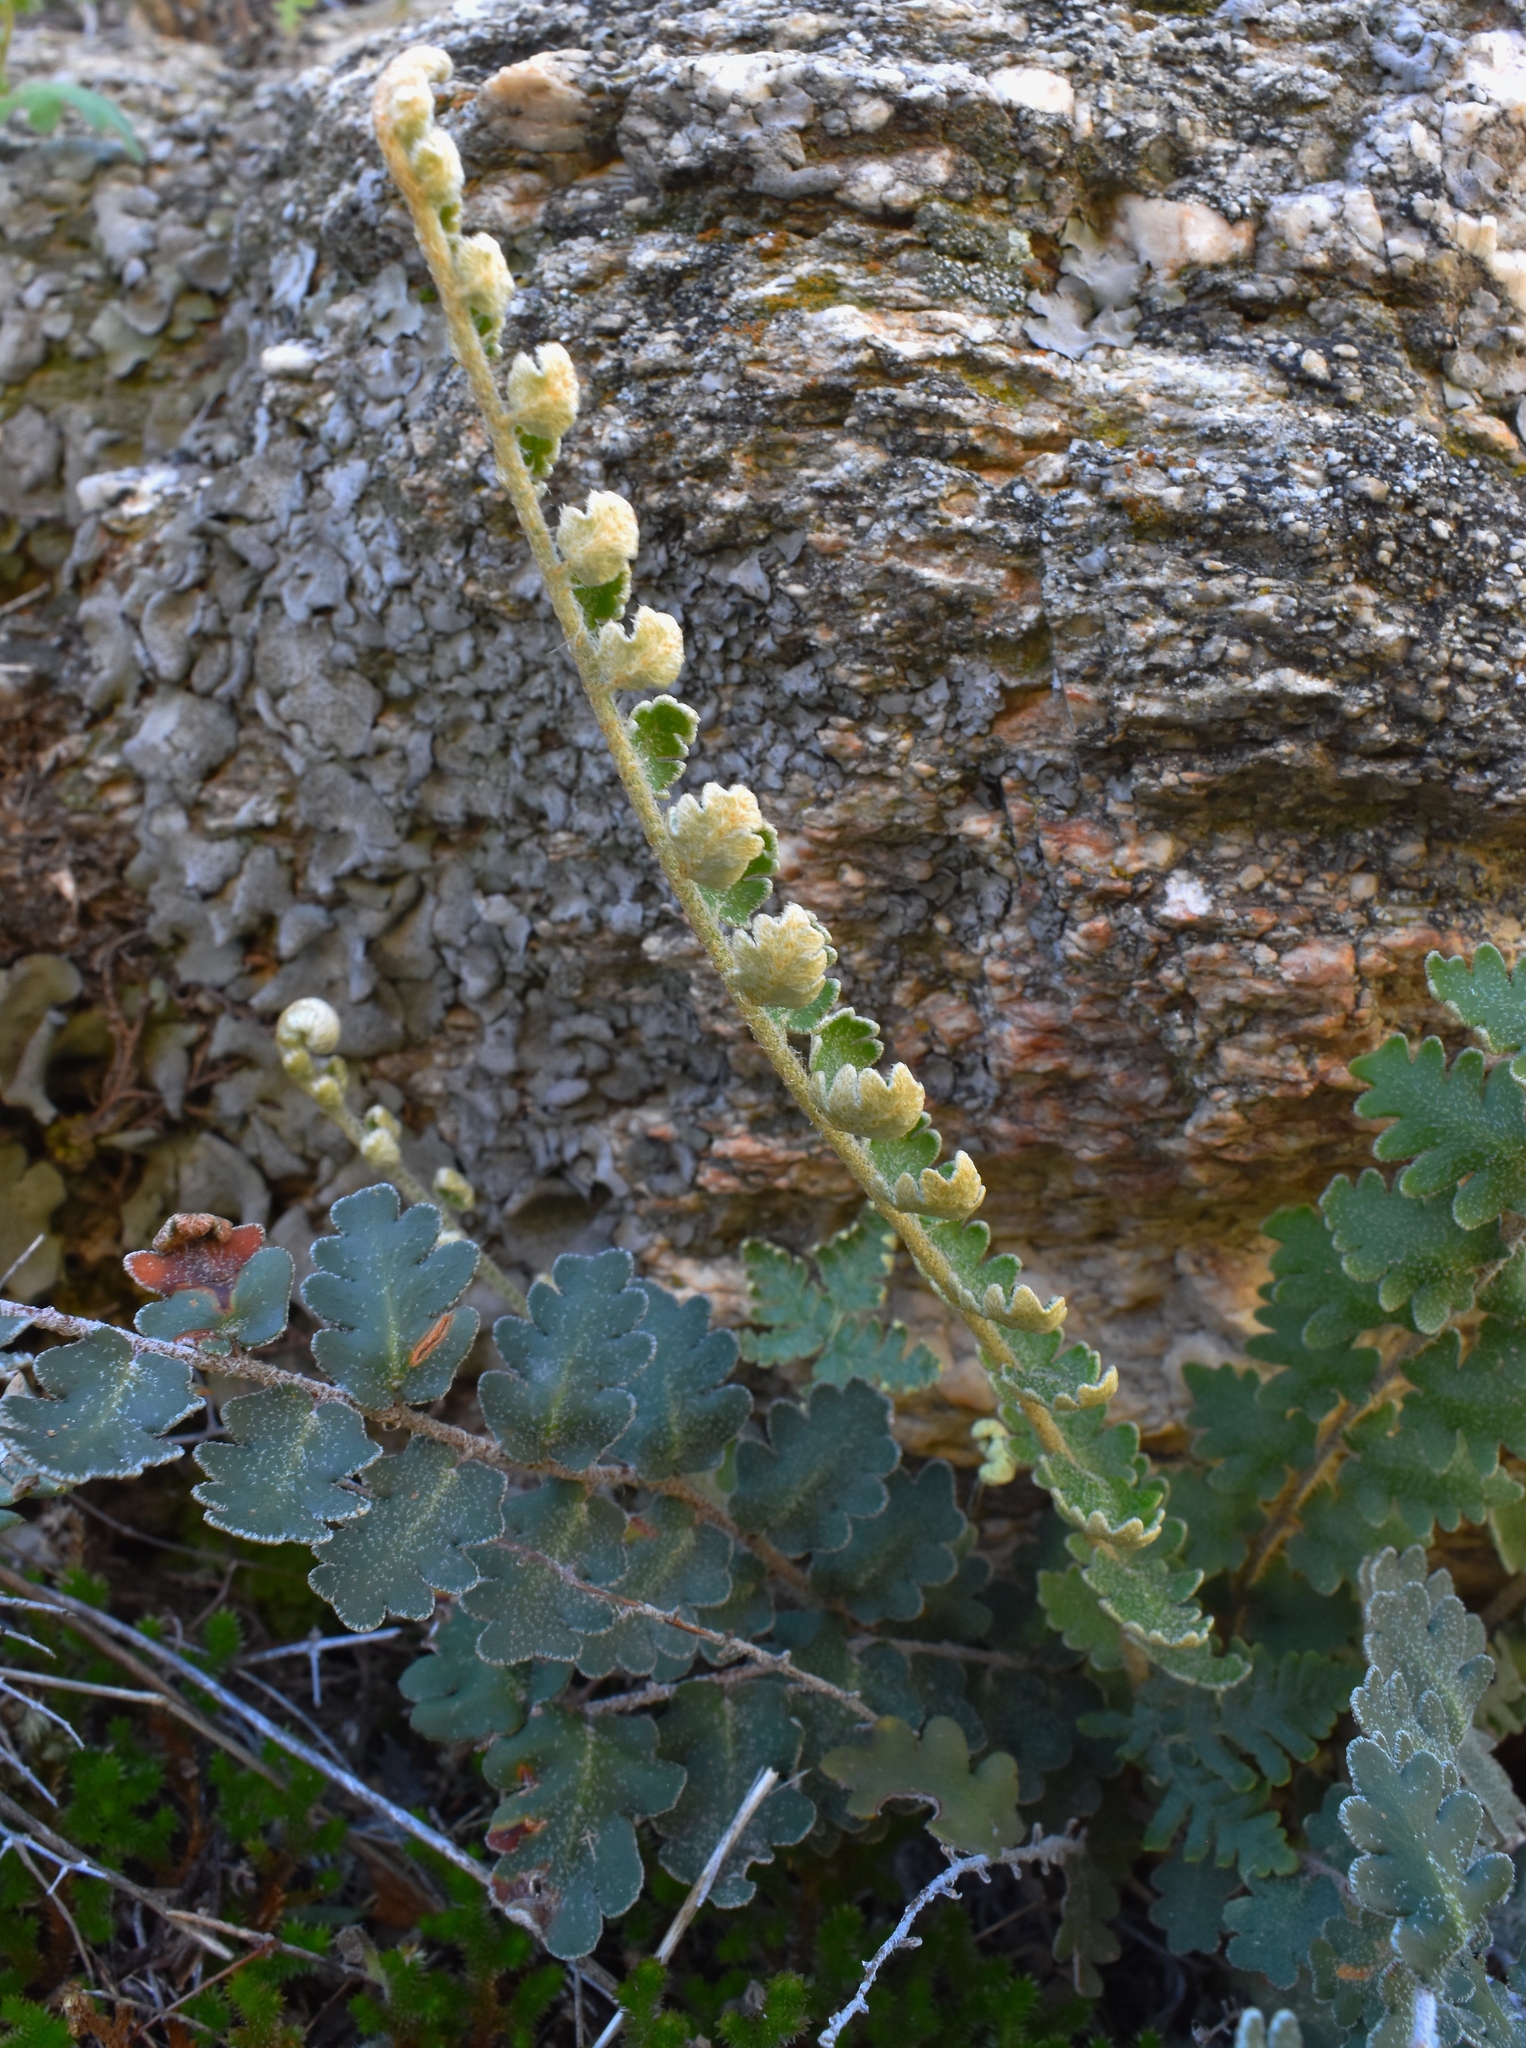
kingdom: Plantae
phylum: Tracheophyta
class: Polypodiopsida
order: Polypodiales
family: Pteridaceae
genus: Astrolepis
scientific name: Astrolepis sinuata
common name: Wavy scaly cloakfern
